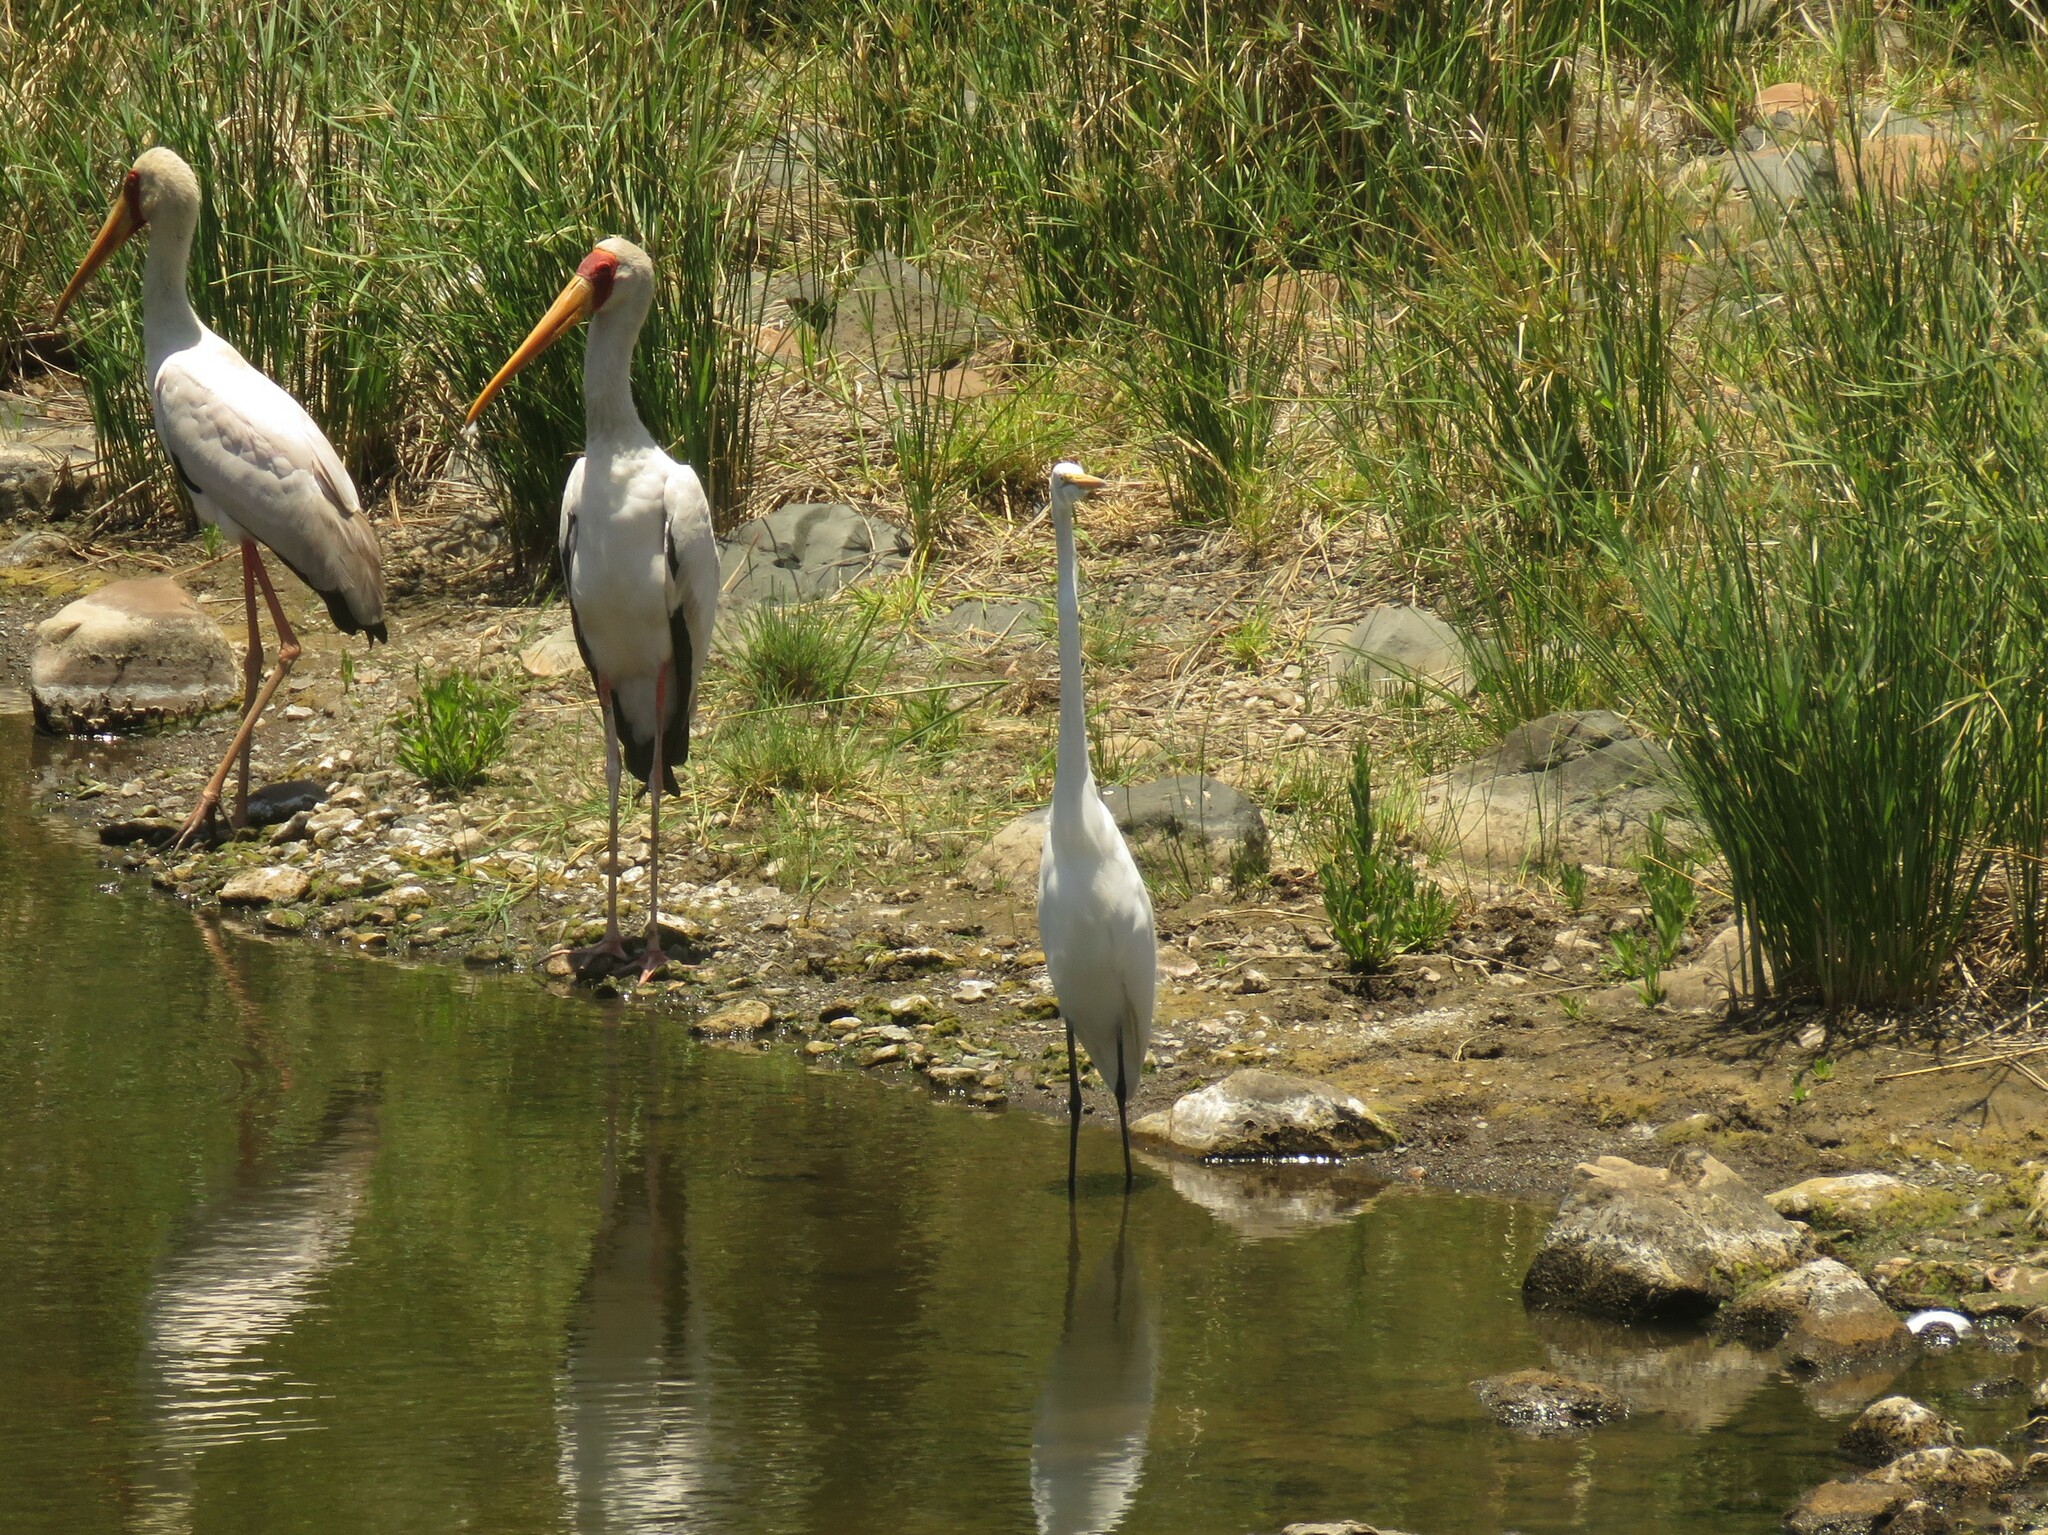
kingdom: Animalia
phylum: Chordata
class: Aves
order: Pelecaniformes
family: Ardeidae
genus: Ardea
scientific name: Ardea alba
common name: Great egret
